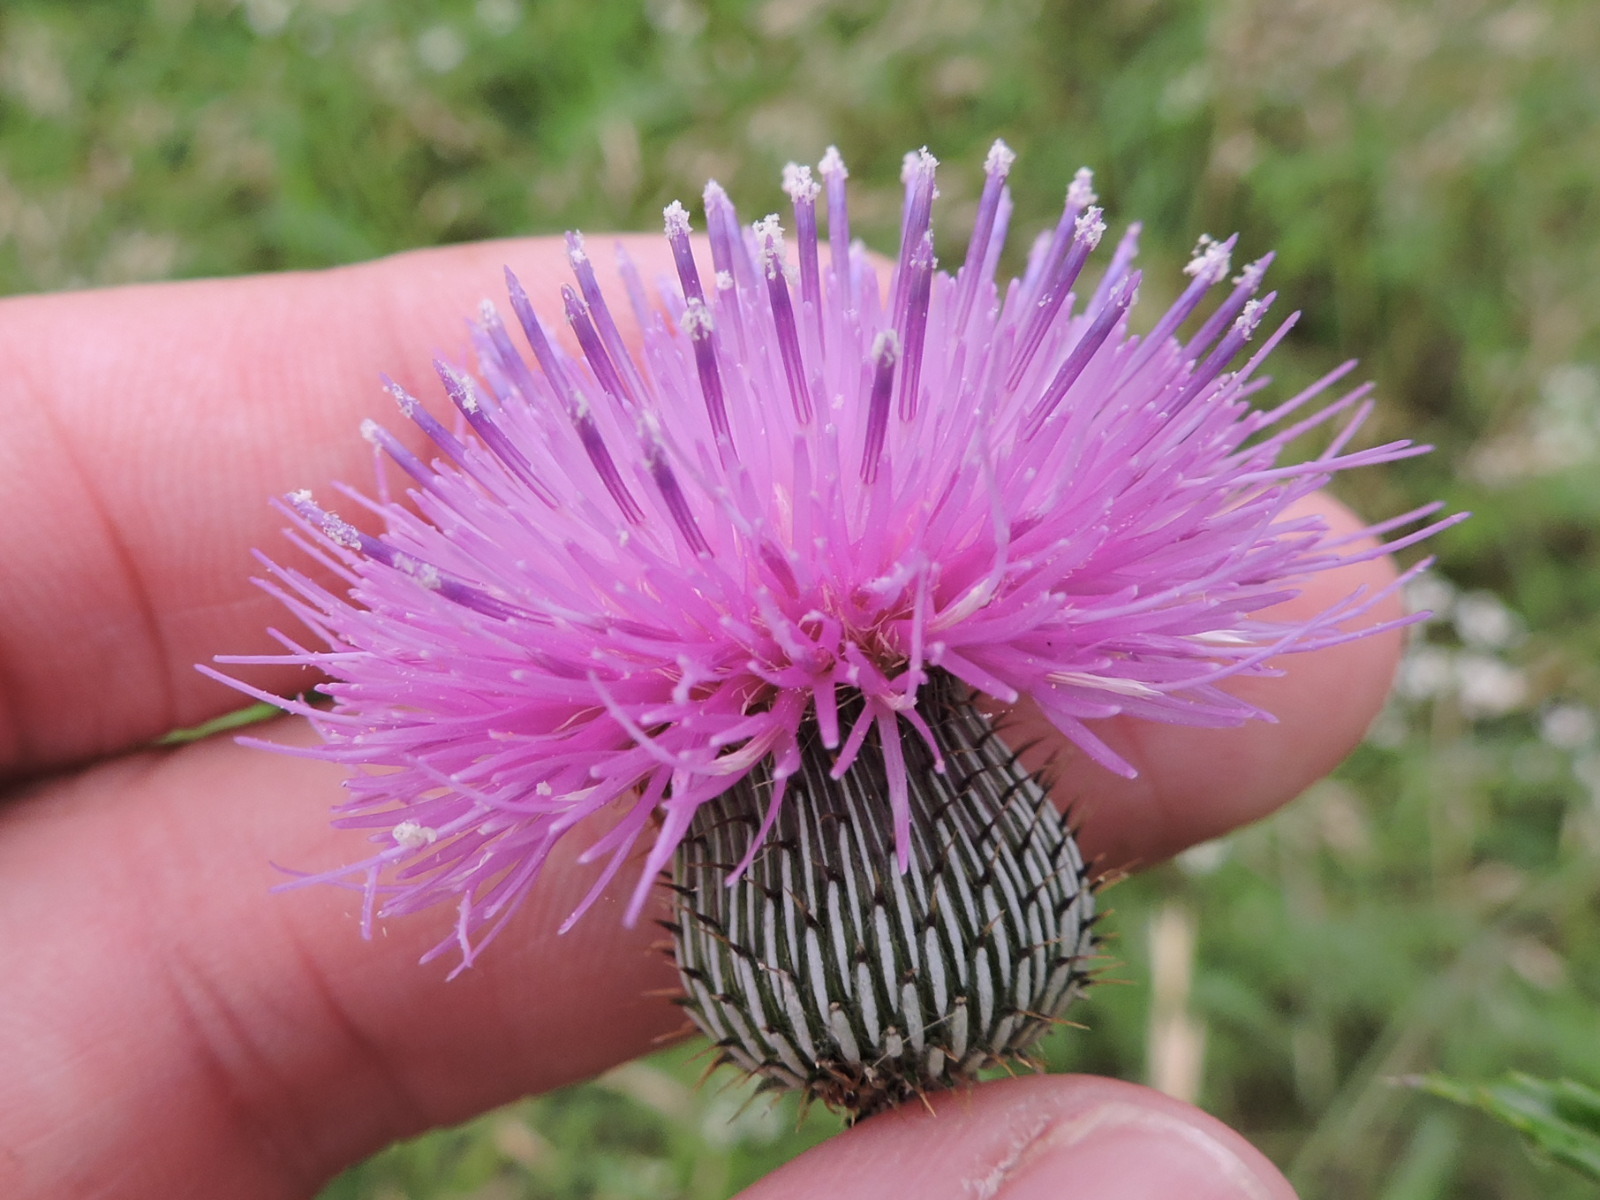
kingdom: Plantae
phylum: Tracheophyta
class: Magnoliopsida
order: Asterales
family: Asteraceae
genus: Cirsium
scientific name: Cirsium texanum
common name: Texas purple thistle
